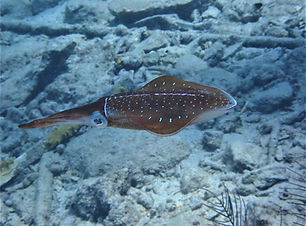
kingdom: Animalia
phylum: Mollusca
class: Cephalopoda
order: Myopsida
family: Loliginidae
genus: Sepioteuthis
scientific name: Sepioteuthis sepioidea
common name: Caribbean reef squid
